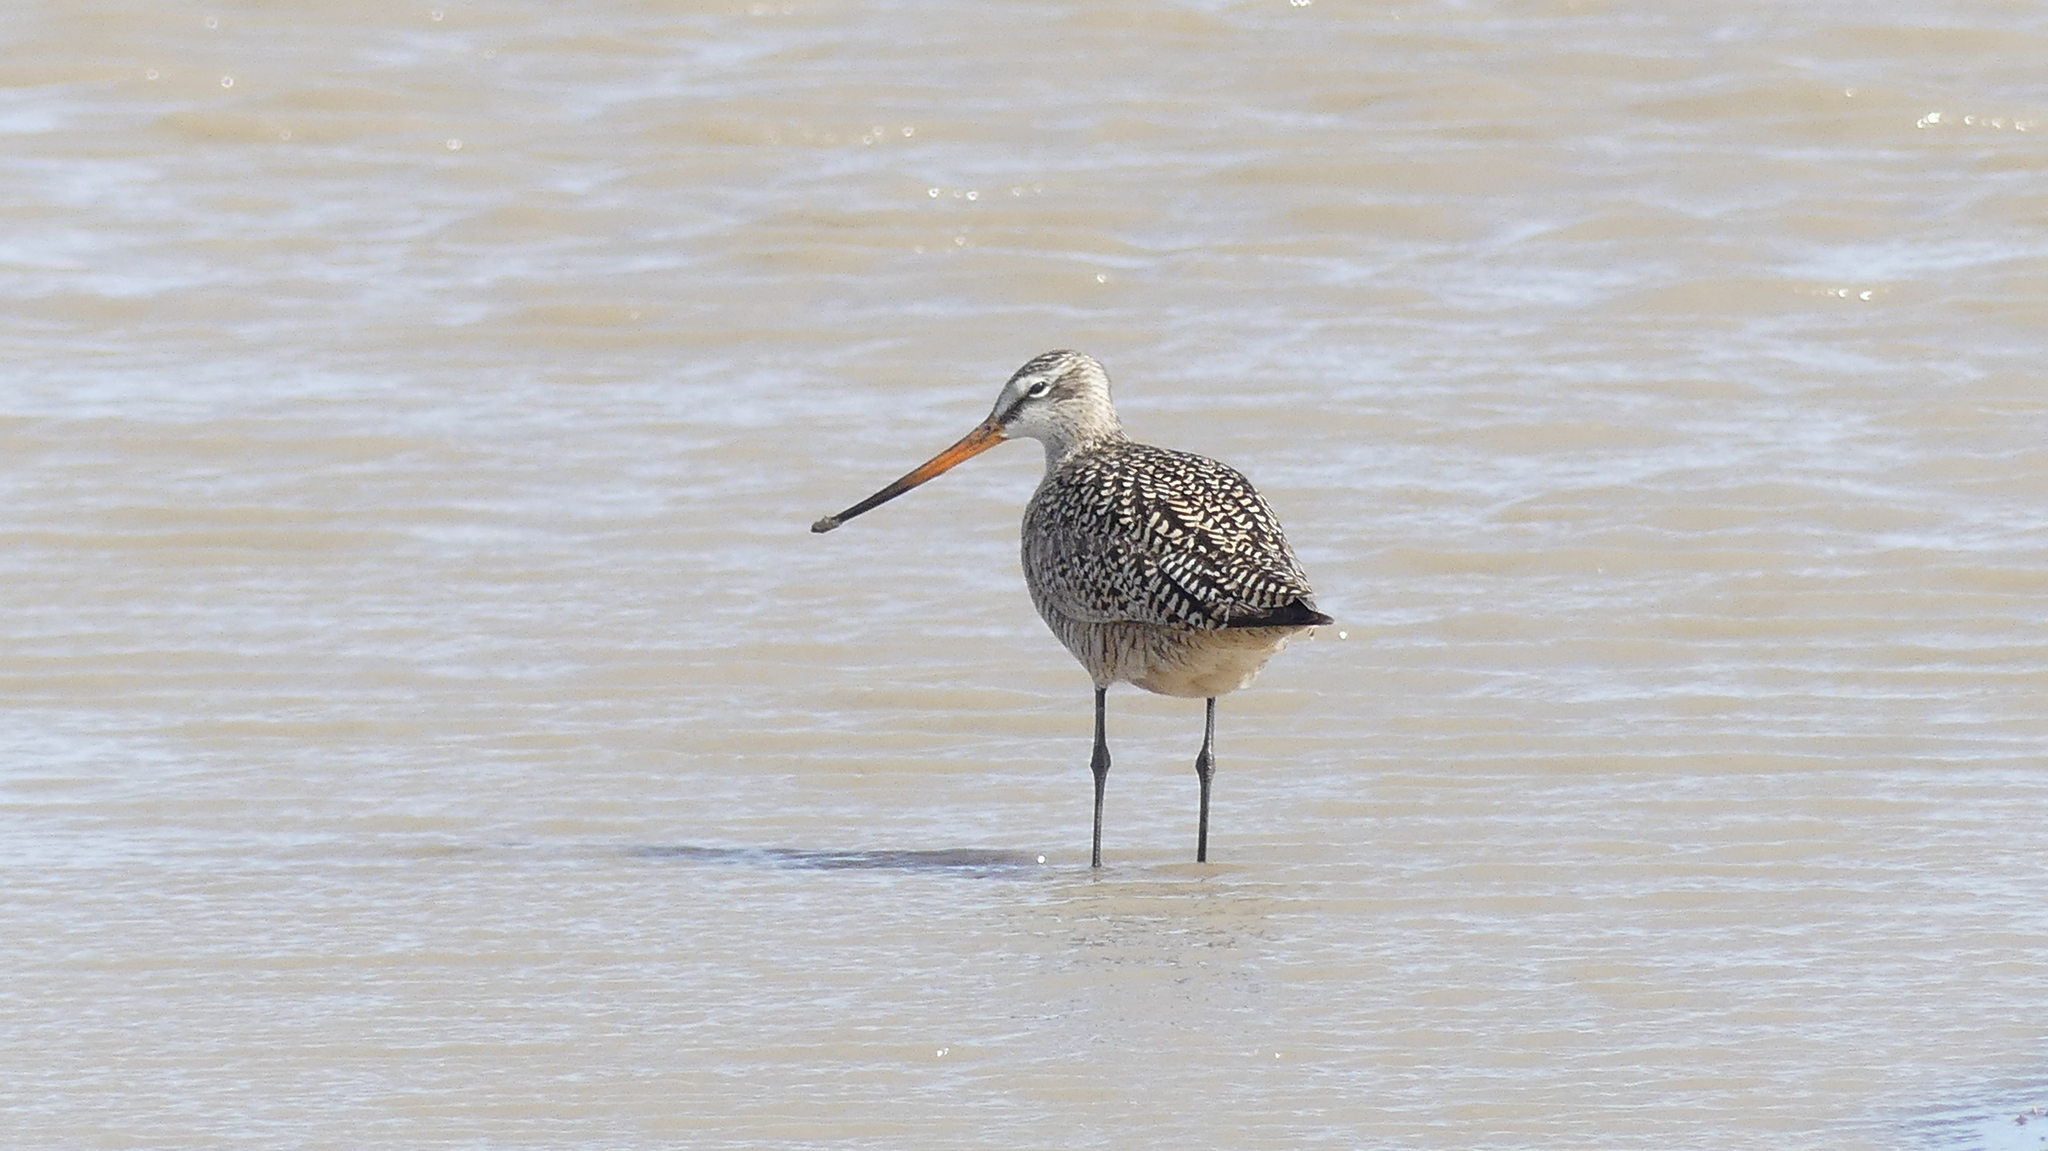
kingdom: Animalia
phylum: Chordata
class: Aves
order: Charadriiformes
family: Scolopacidae
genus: Limosa
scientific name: Limosa fedoa
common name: Marbled godwit
